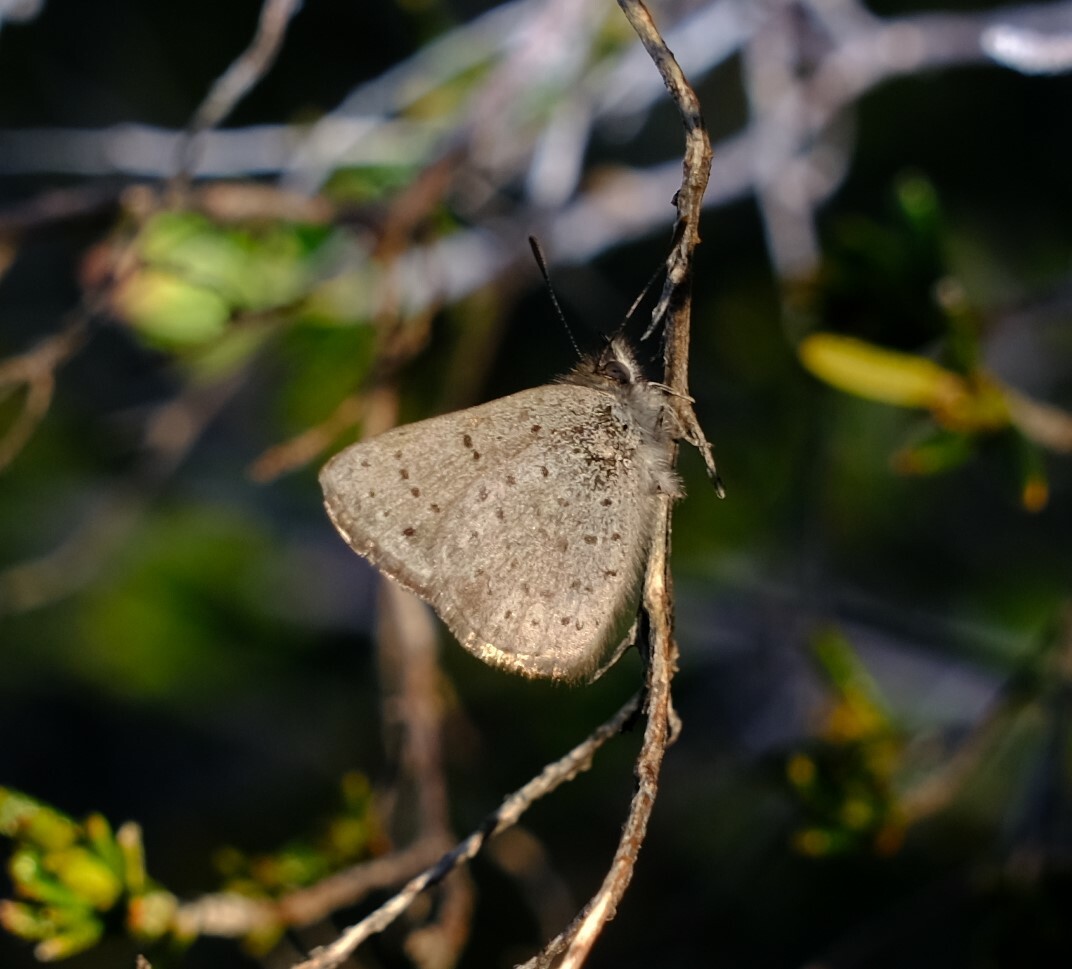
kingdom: Animalia
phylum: Arthropoda
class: Insecta
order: Lepidoptera
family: Lycaenidae
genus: Candalides
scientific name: Candalides
